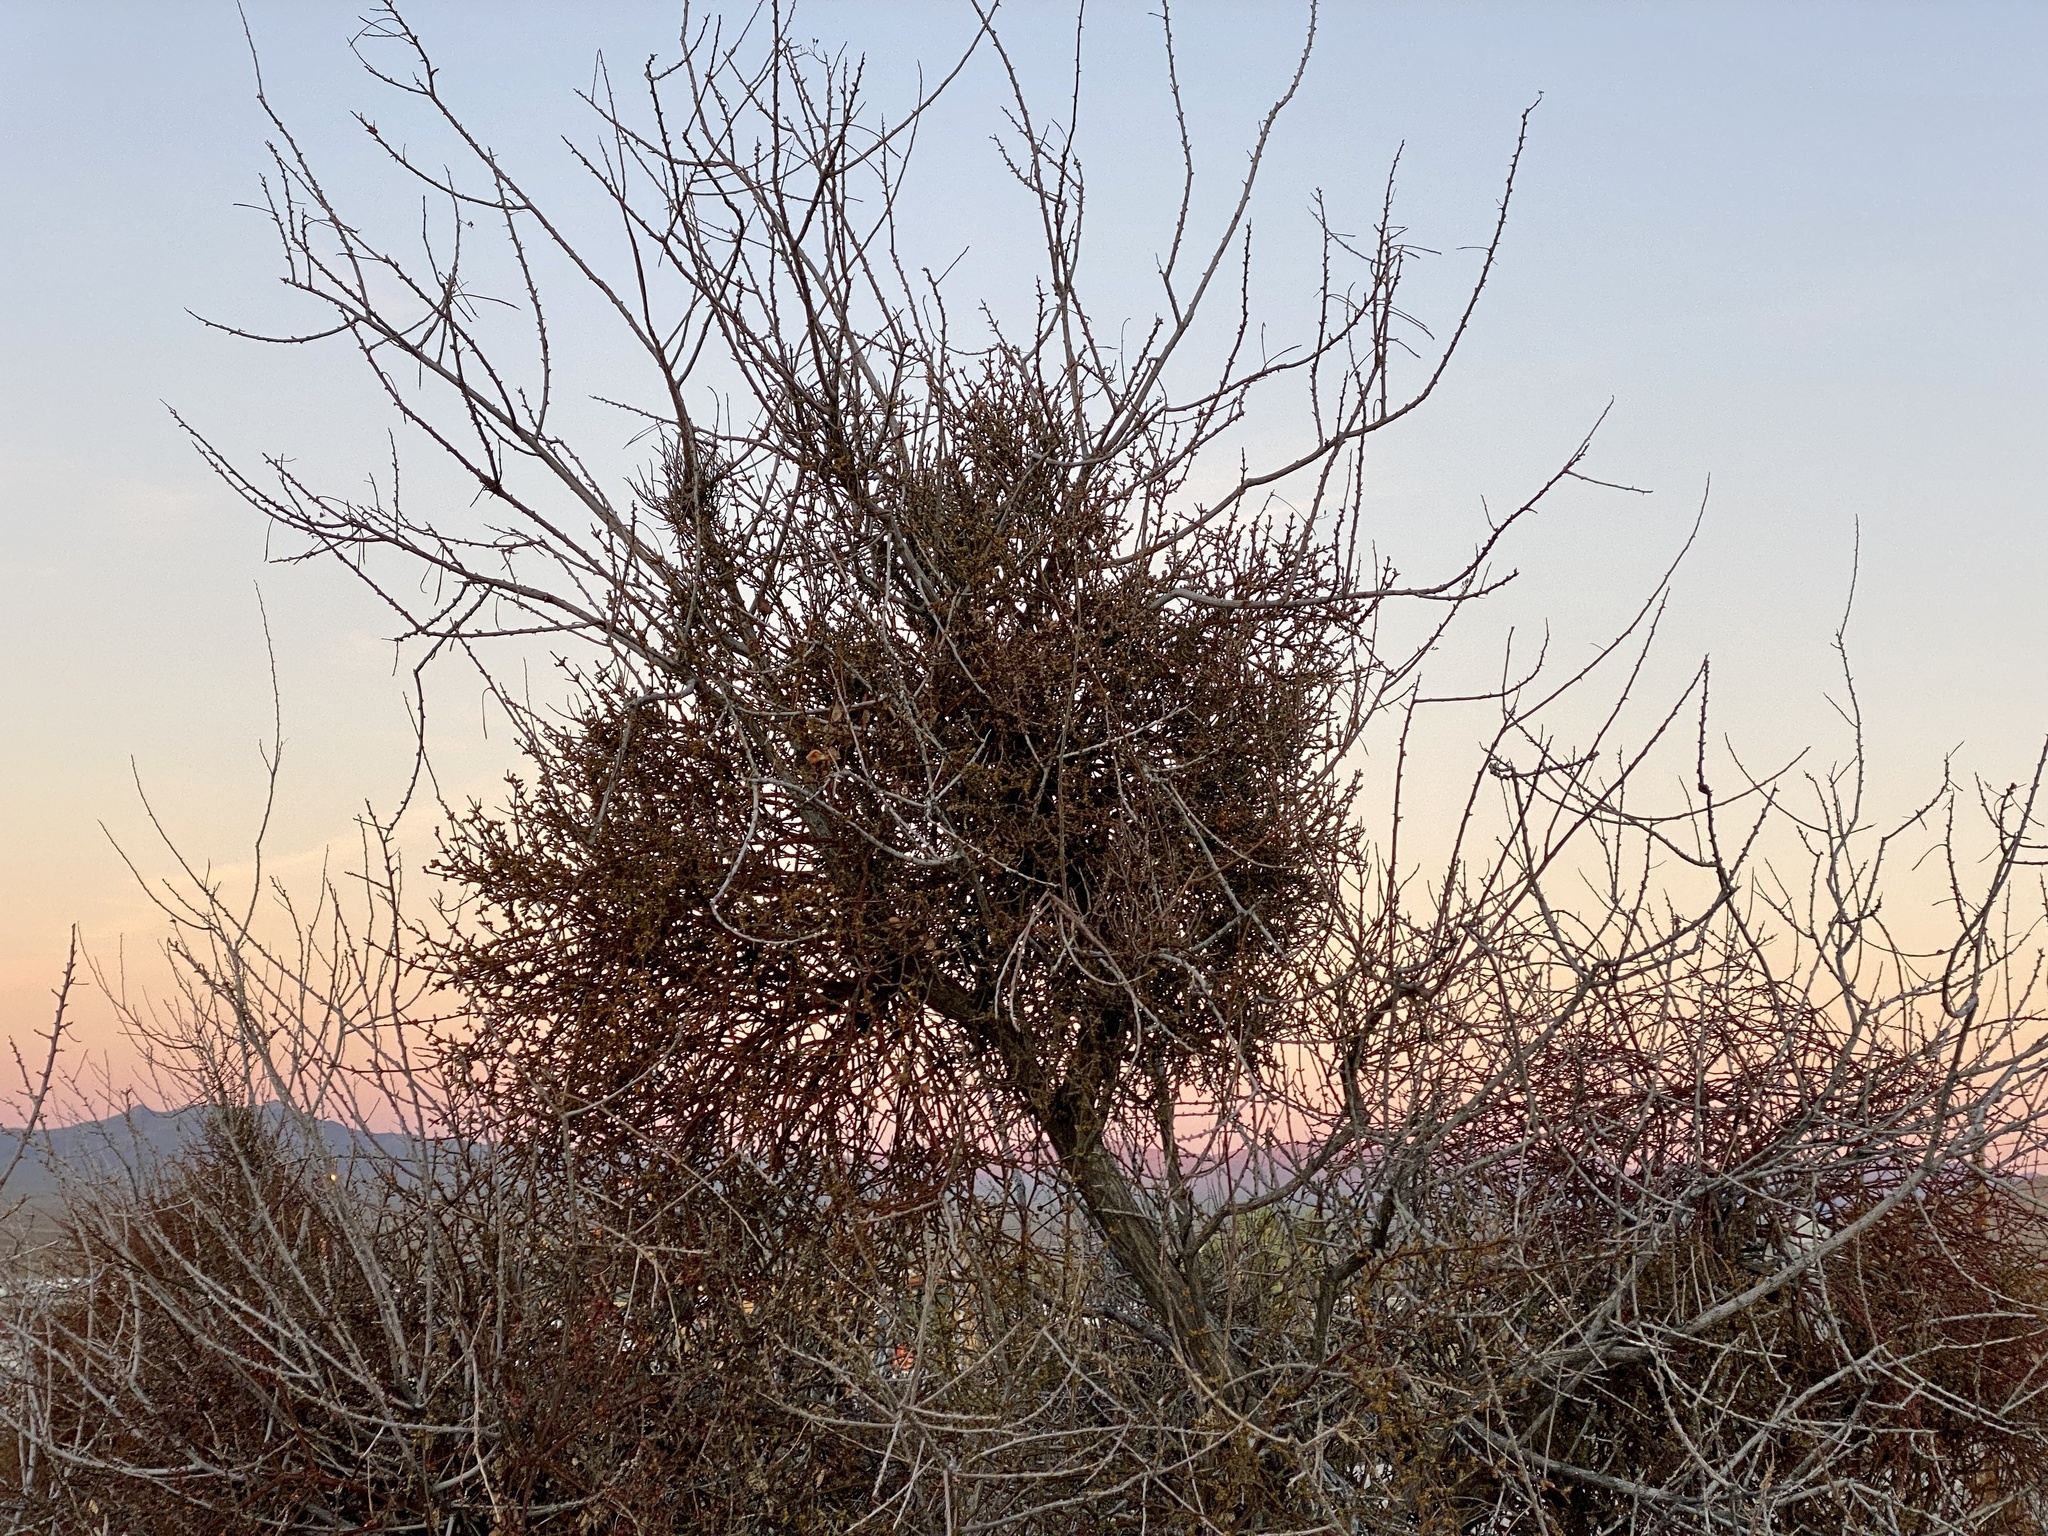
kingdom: Plantae
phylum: Tracheophyta
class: Magnoliopsida
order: Santalales
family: Viscaceae
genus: Phoradendron
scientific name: Phoradendron californicum
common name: Acacia mistletoe
